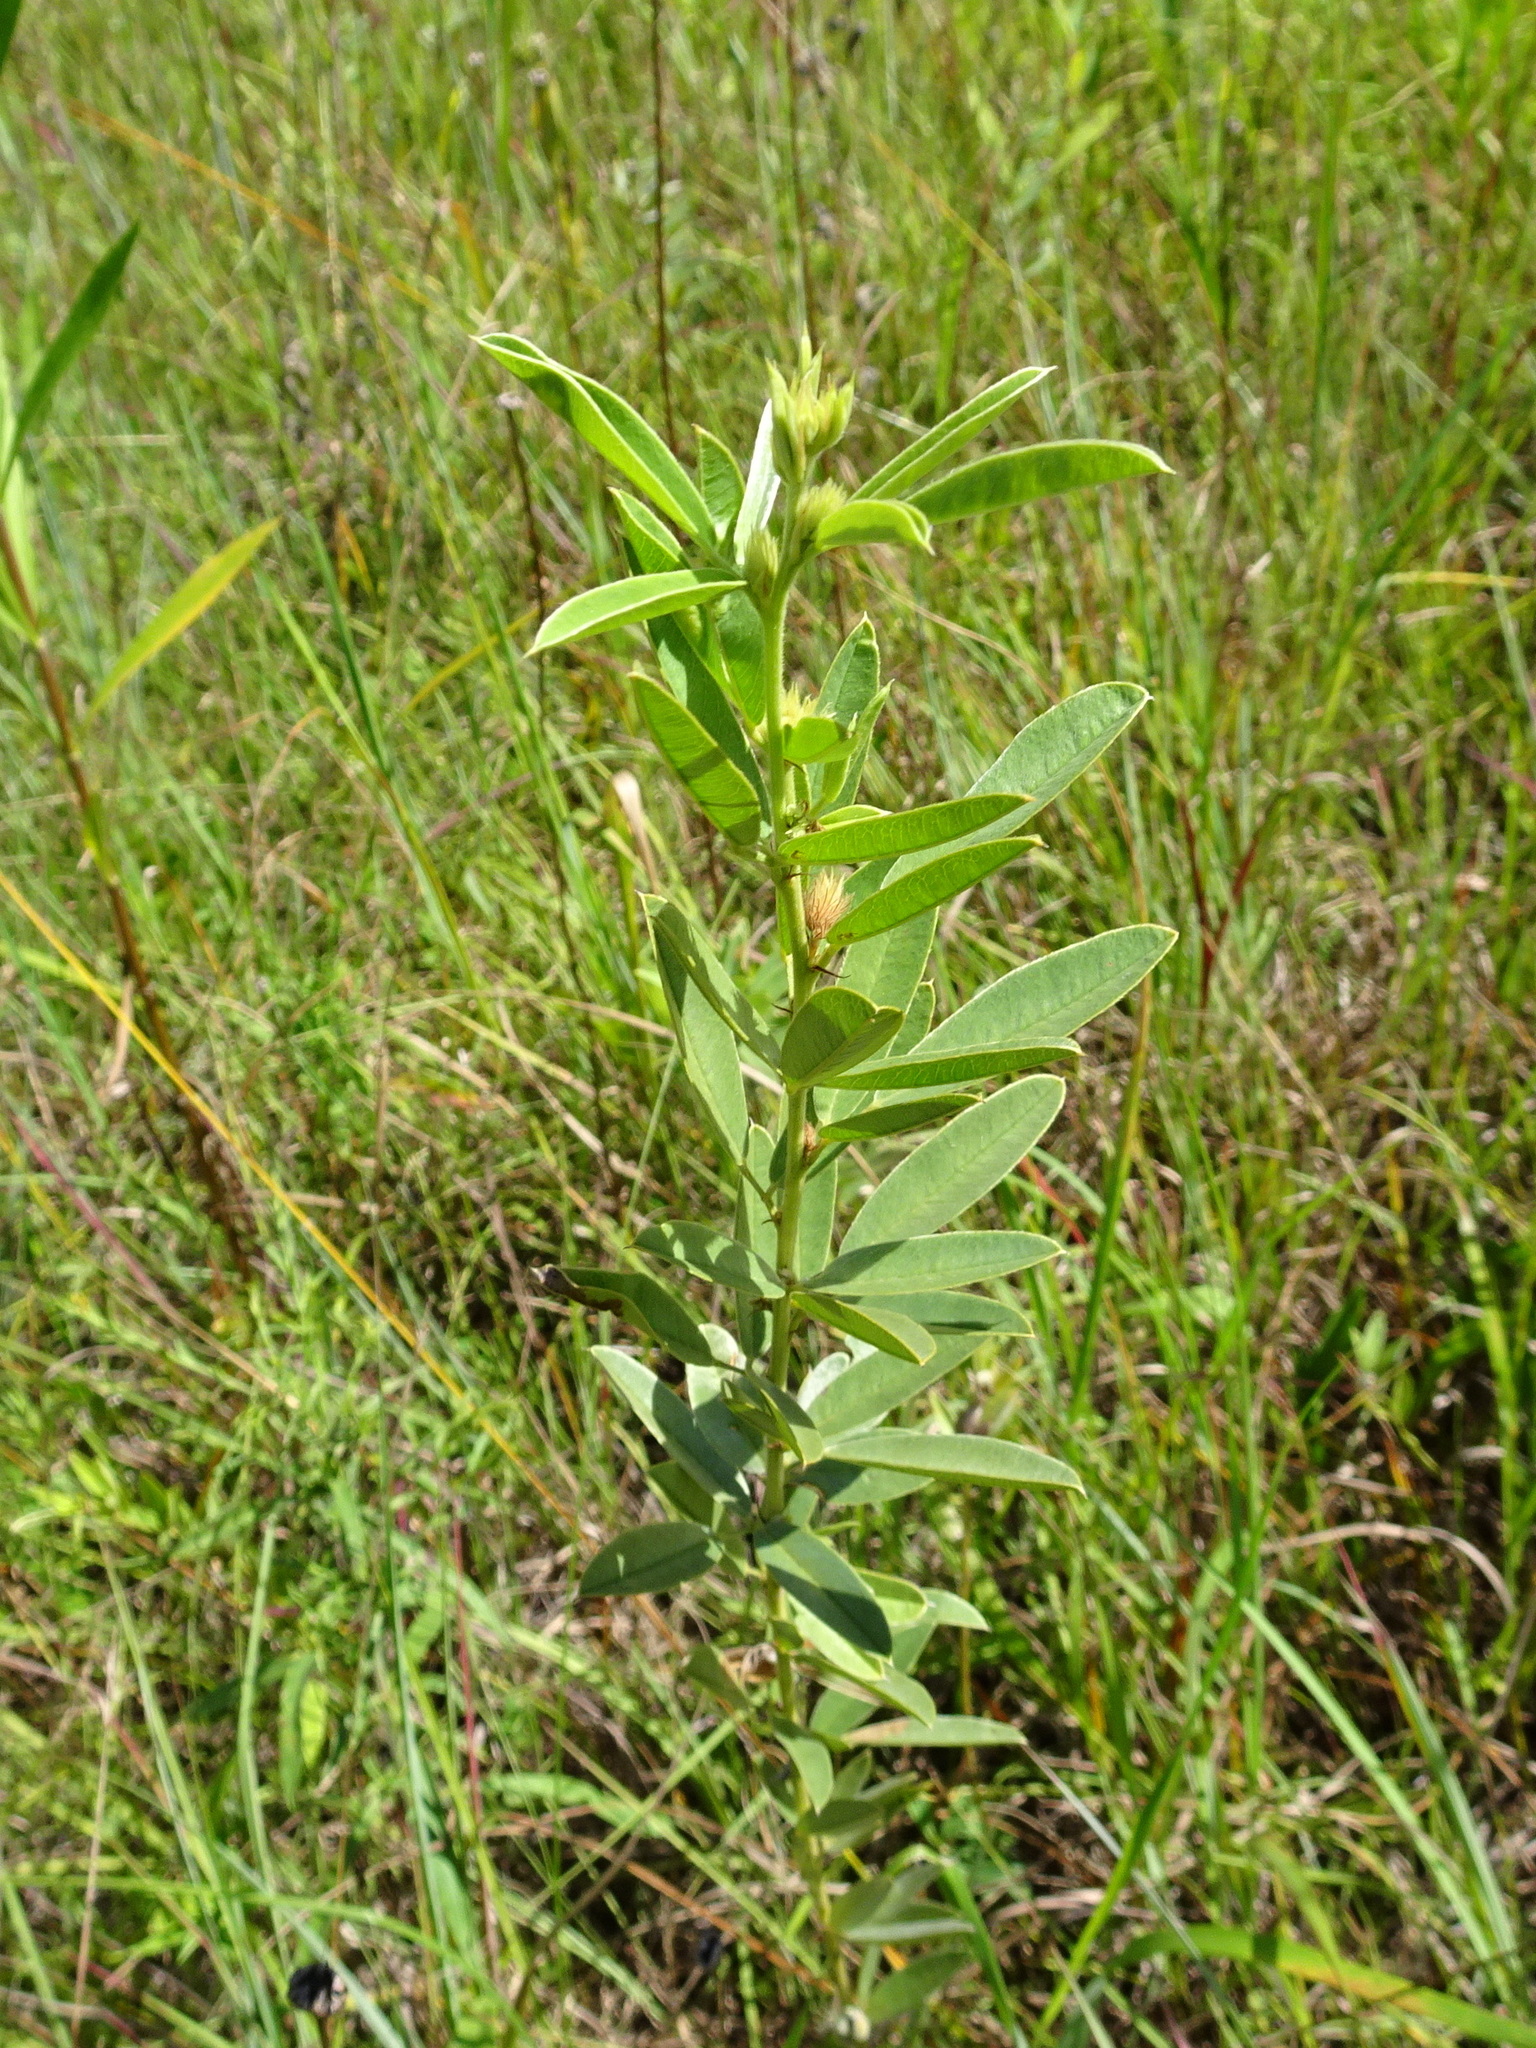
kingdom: Plantae
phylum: Tracheophyta
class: Magnoliopsida
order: Fabales
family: Fabaceae
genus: Lespedeza
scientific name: Lespedeza capitata
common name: Dusty clover
